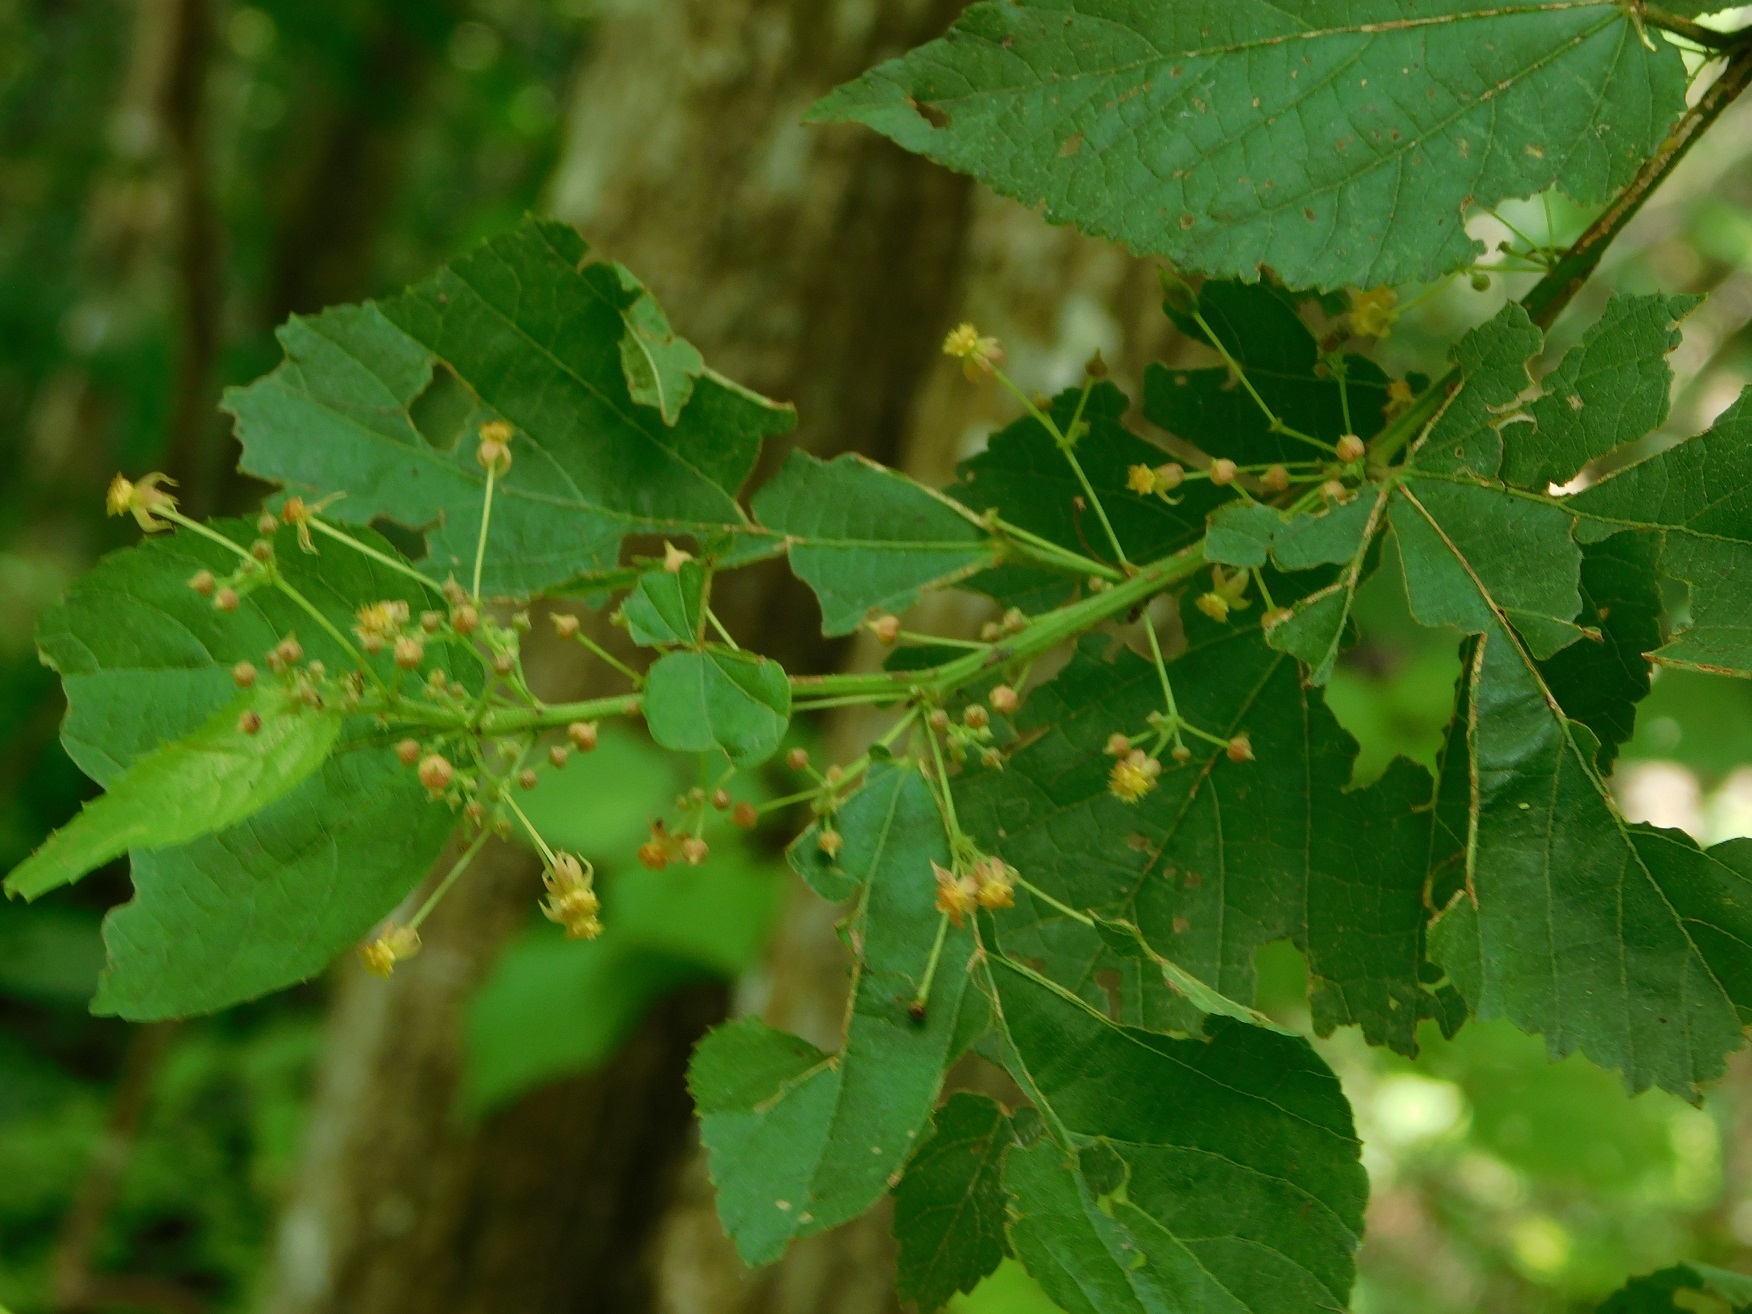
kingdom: Plantae
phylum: Tracheophyta
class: Magnoliopsida
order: Malvales
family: Malvaceae
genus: Ayenia
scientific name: Ayenia micrantha
